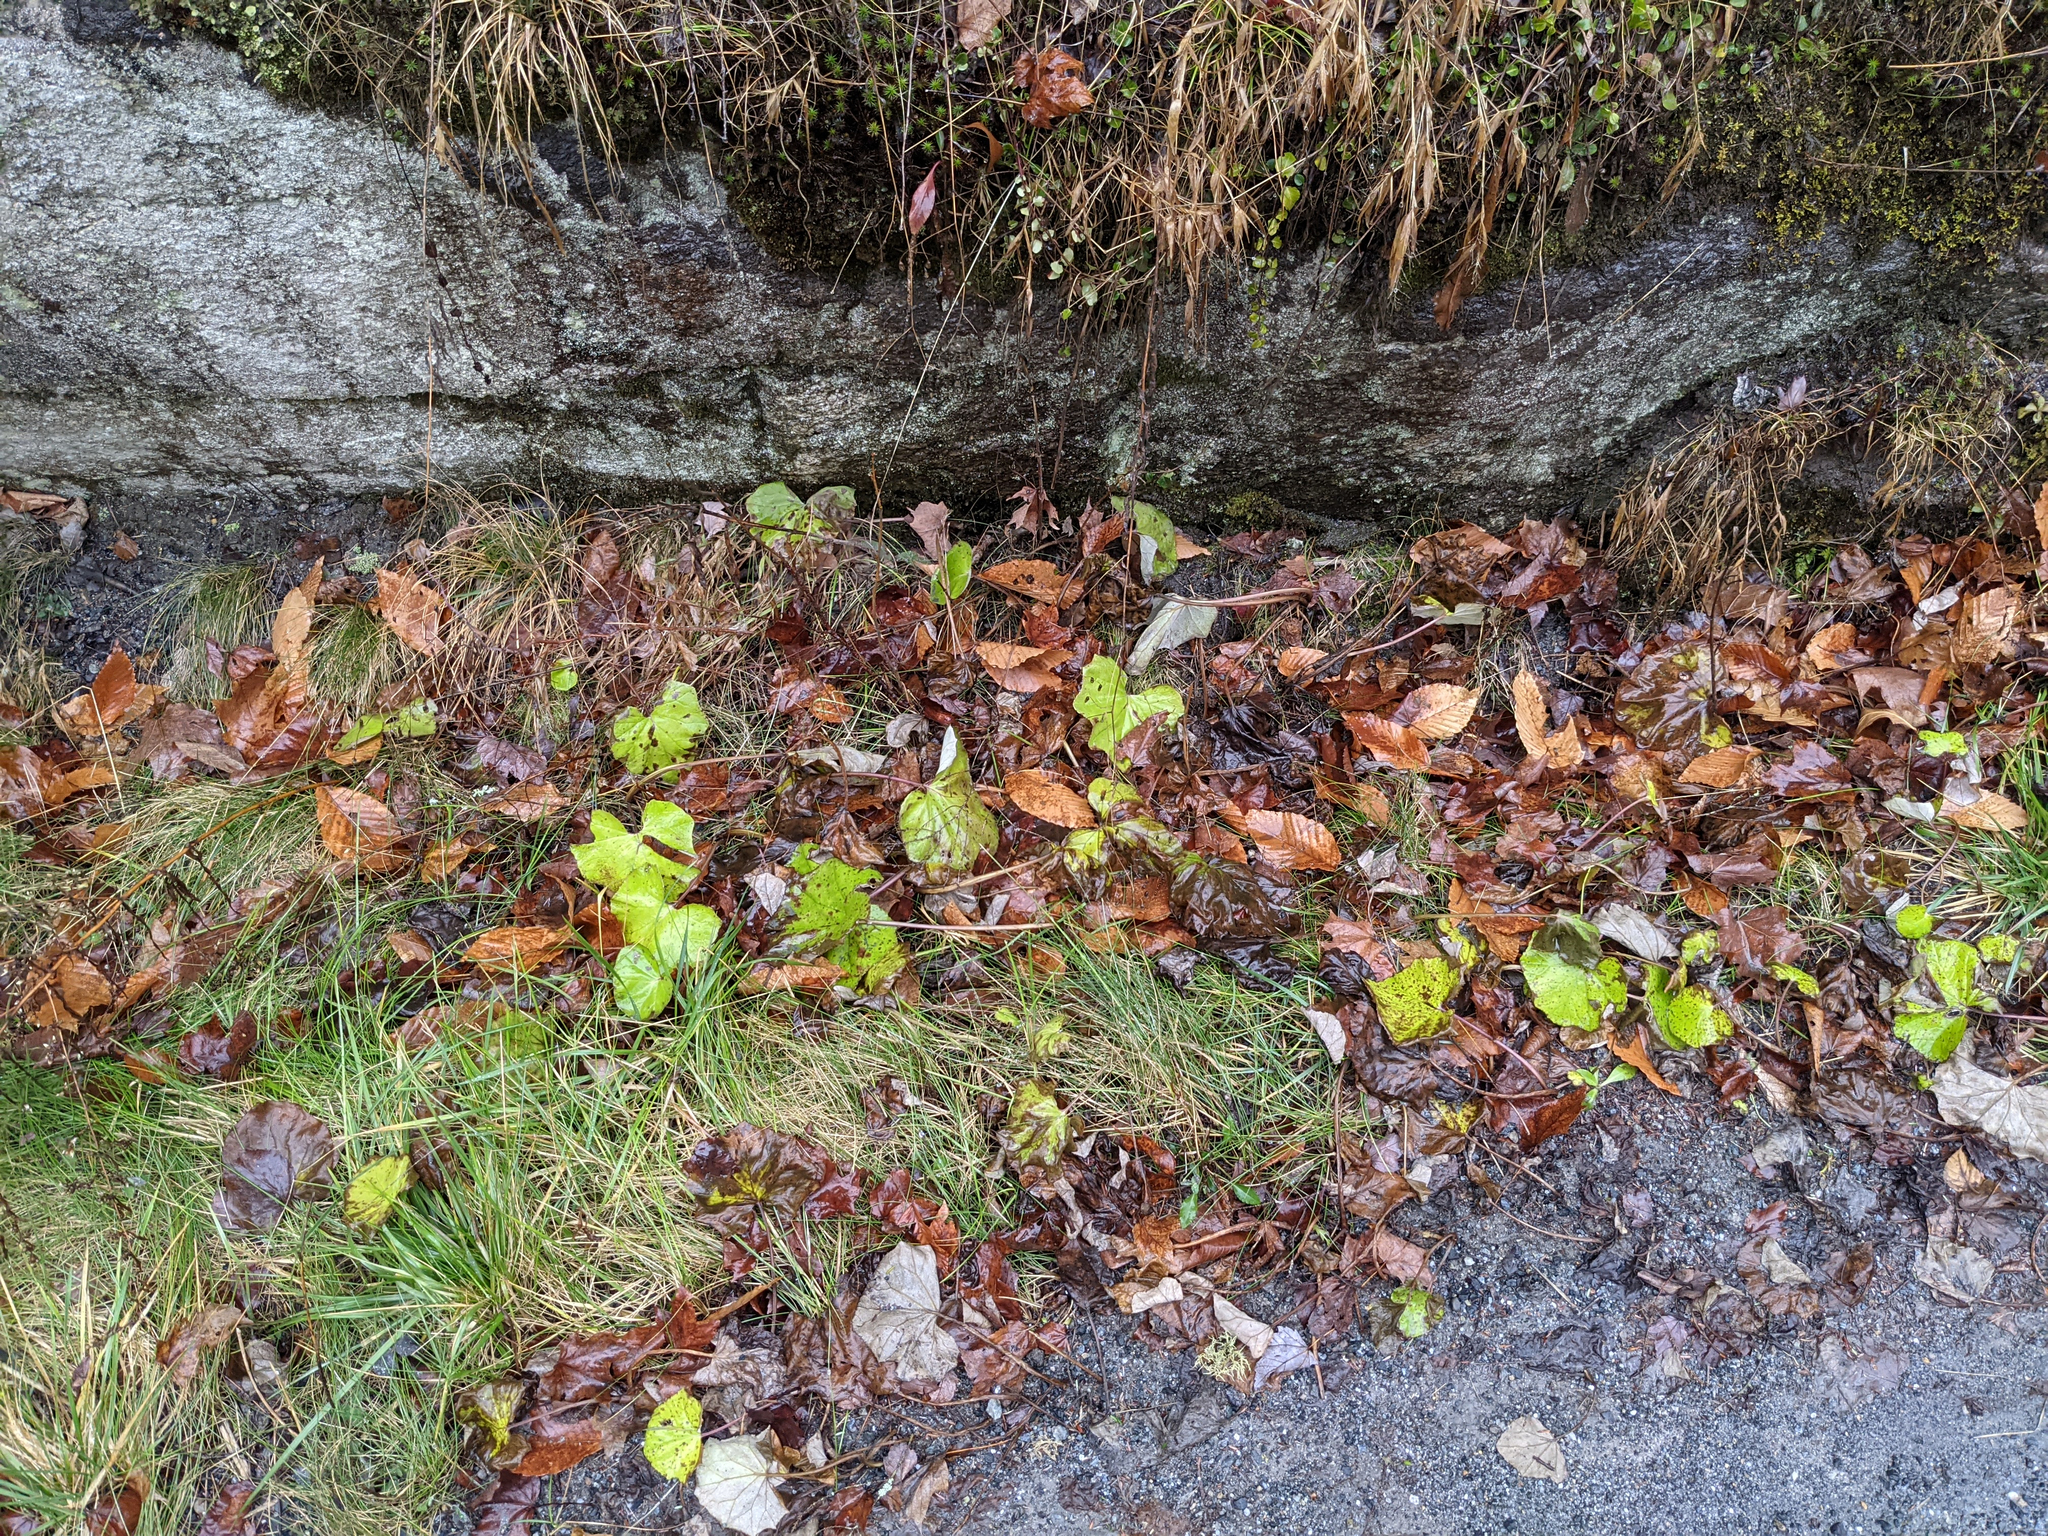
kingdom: Plantae
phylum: Tracheophyta
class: Magnoliopsida
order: Asterales
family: Asteraceae
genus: Tussilago
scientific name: Tussilago farfara
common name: Coltsfoot
